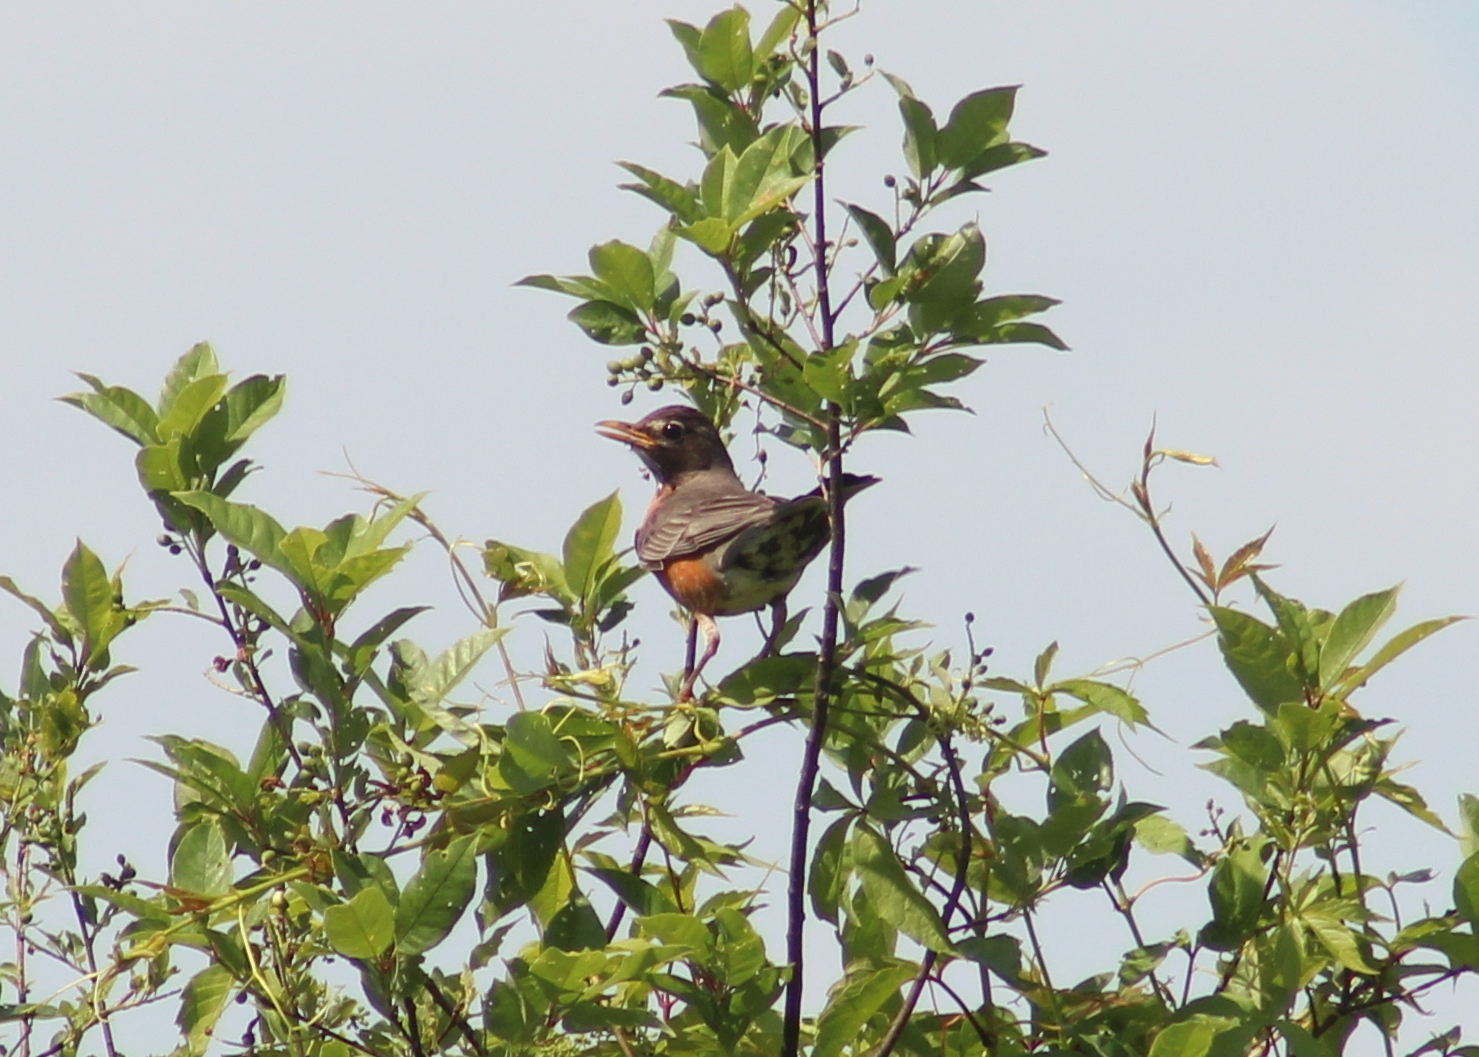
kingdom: Animalia
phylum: Chordata
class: Aves
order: Passeriformes
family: Turdidae
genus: Turdus
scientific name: Turdus migratorius
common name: American robin
